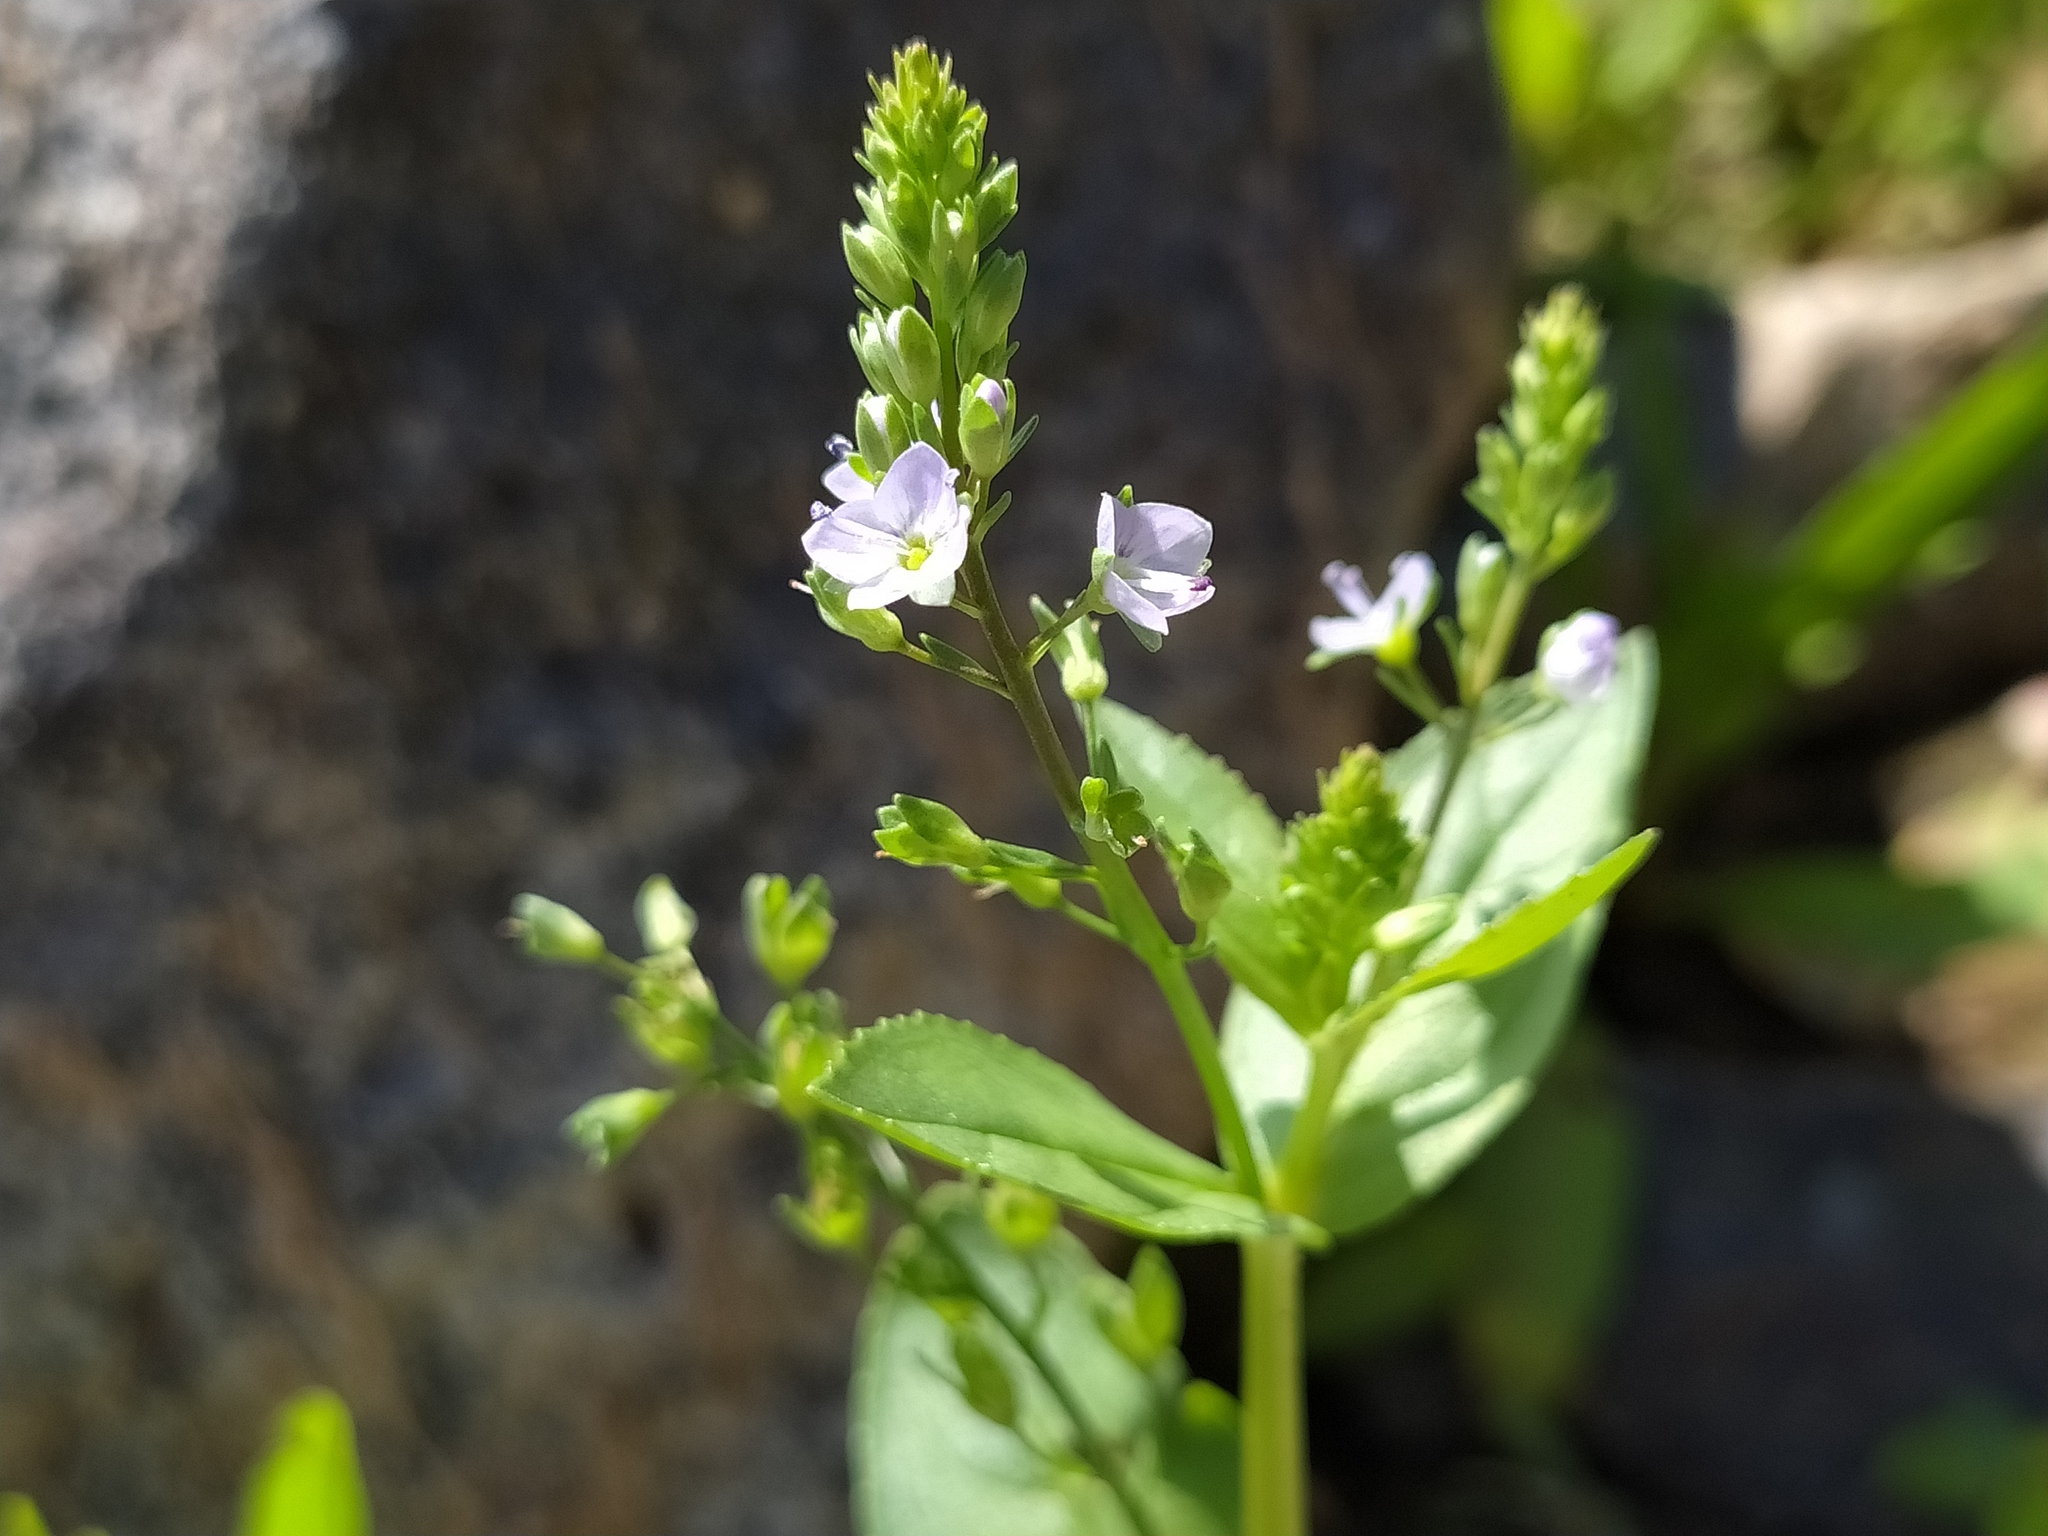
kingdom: Plantae
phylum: Tracheophyta
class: Magnoliopsida
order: Lamiales
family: Plantaginaceae
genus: Veronica
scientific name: Veronica anagallis-aquatica
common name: Water speedwell
